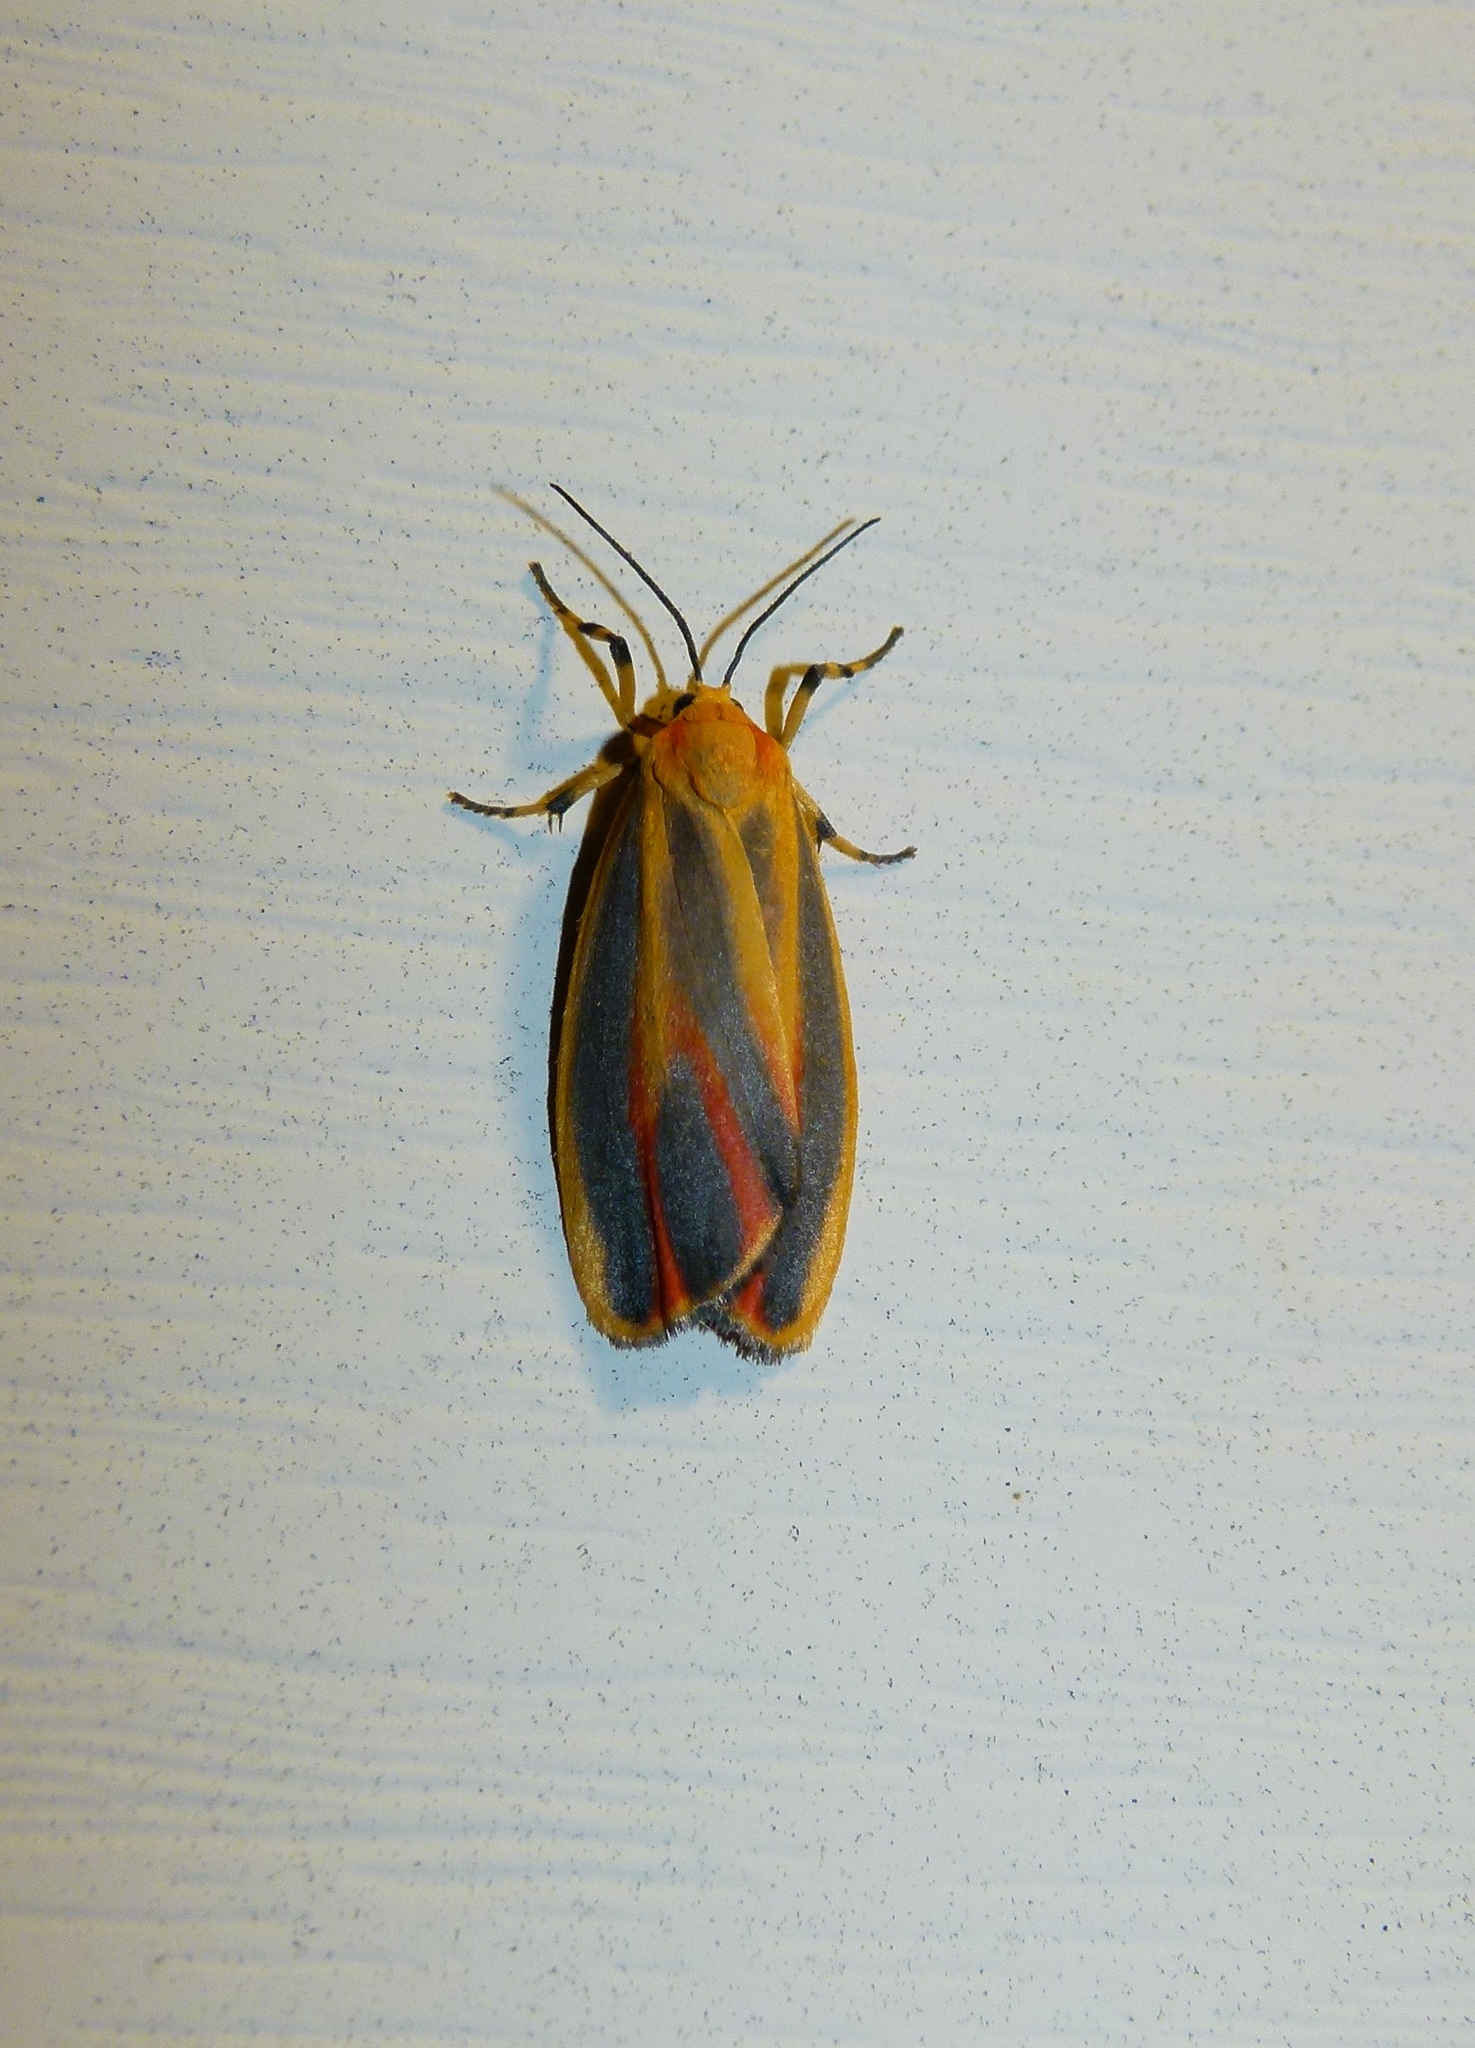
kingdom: Animalia
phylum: Arthropoda
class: Insecta
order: Lepidoptera
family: Erebidae
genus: Hypoprepia
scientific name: Hypoprepia fucosa
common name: Painted lichen moth
